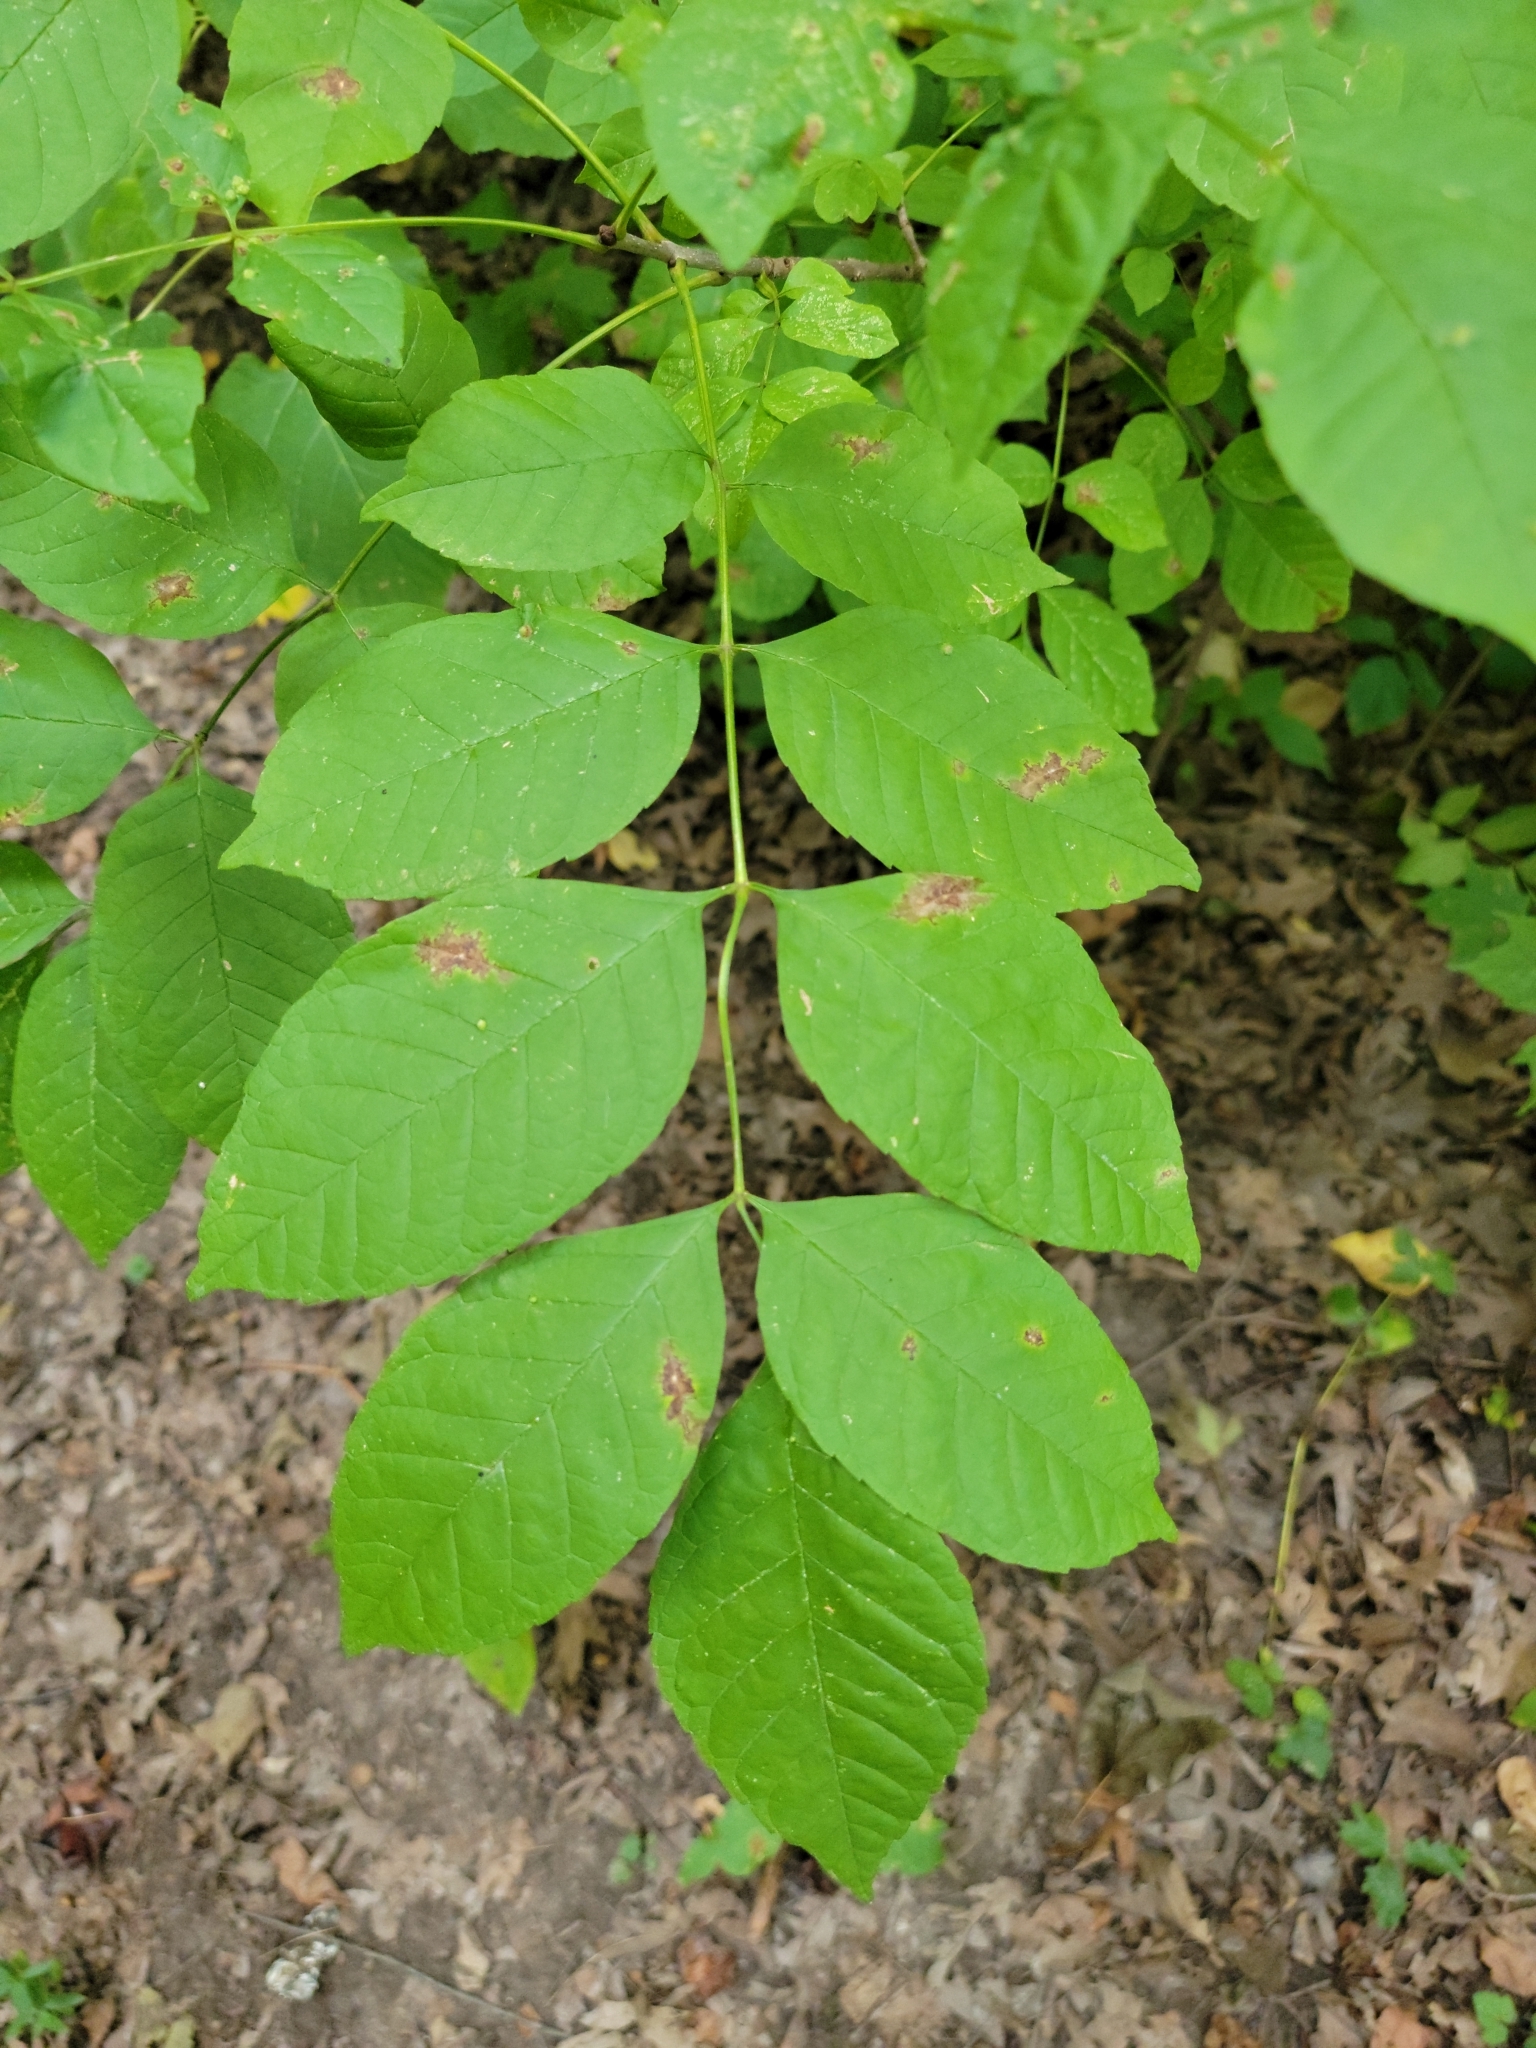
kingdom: Plantae
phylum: Tracheophyta
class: Magnoliopsida
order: Lamiales
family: Oleaceae
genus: Fraxinus
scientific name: Fraxinus pennsylvanica
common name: Green ash
